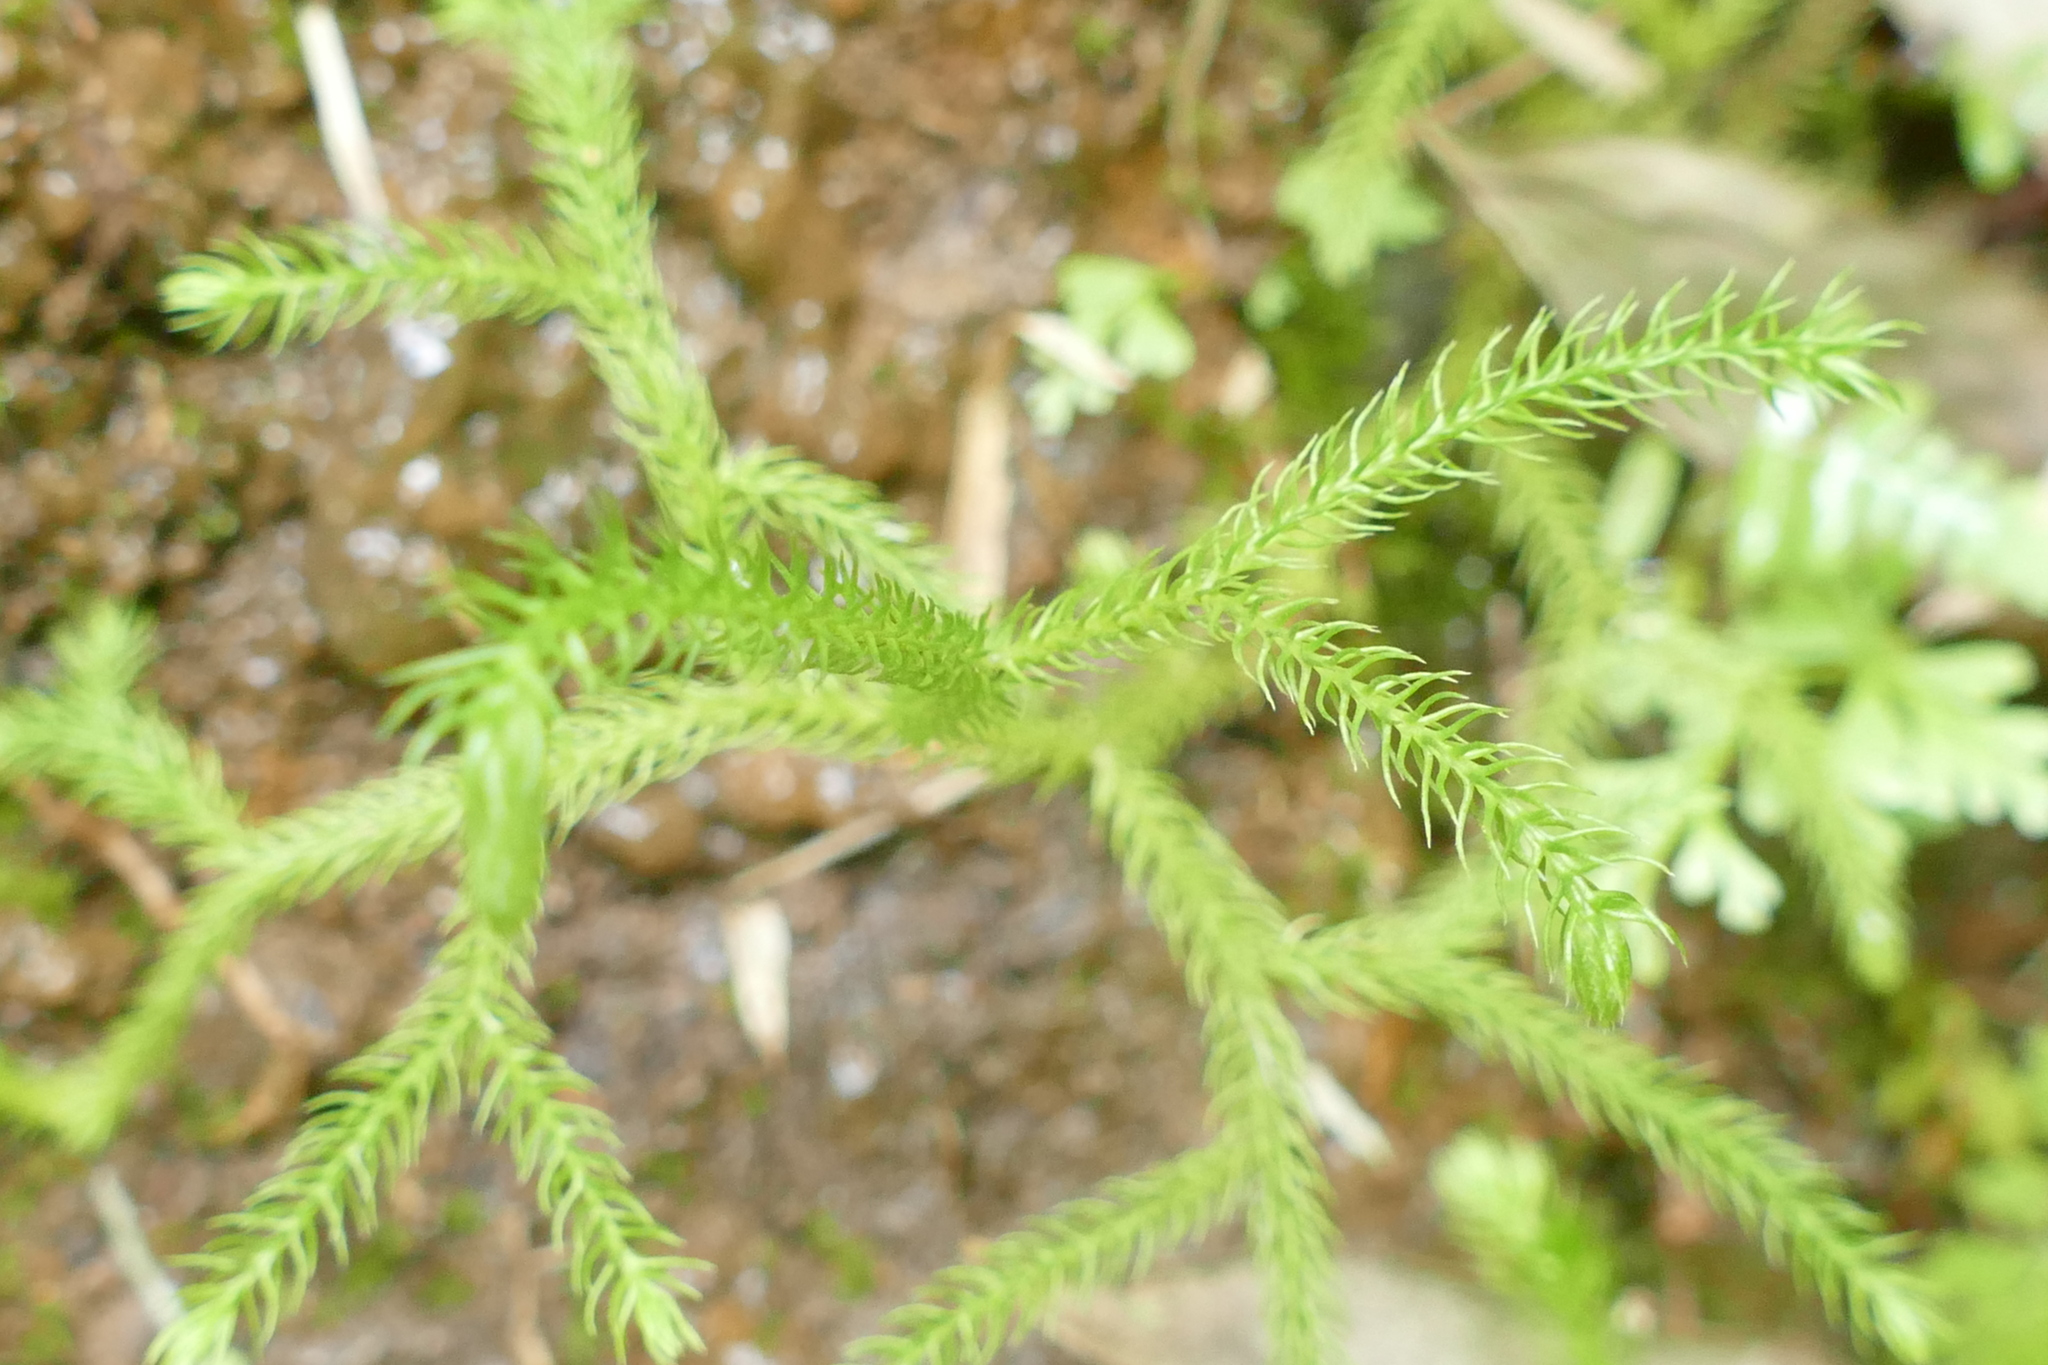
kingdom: Plantae
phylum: Tracheophyta
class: Lycopodiopsida
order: Lycopodiales
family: Lycopodiaceae
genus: Palhinhaea
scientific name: Palhinhaea cernua
